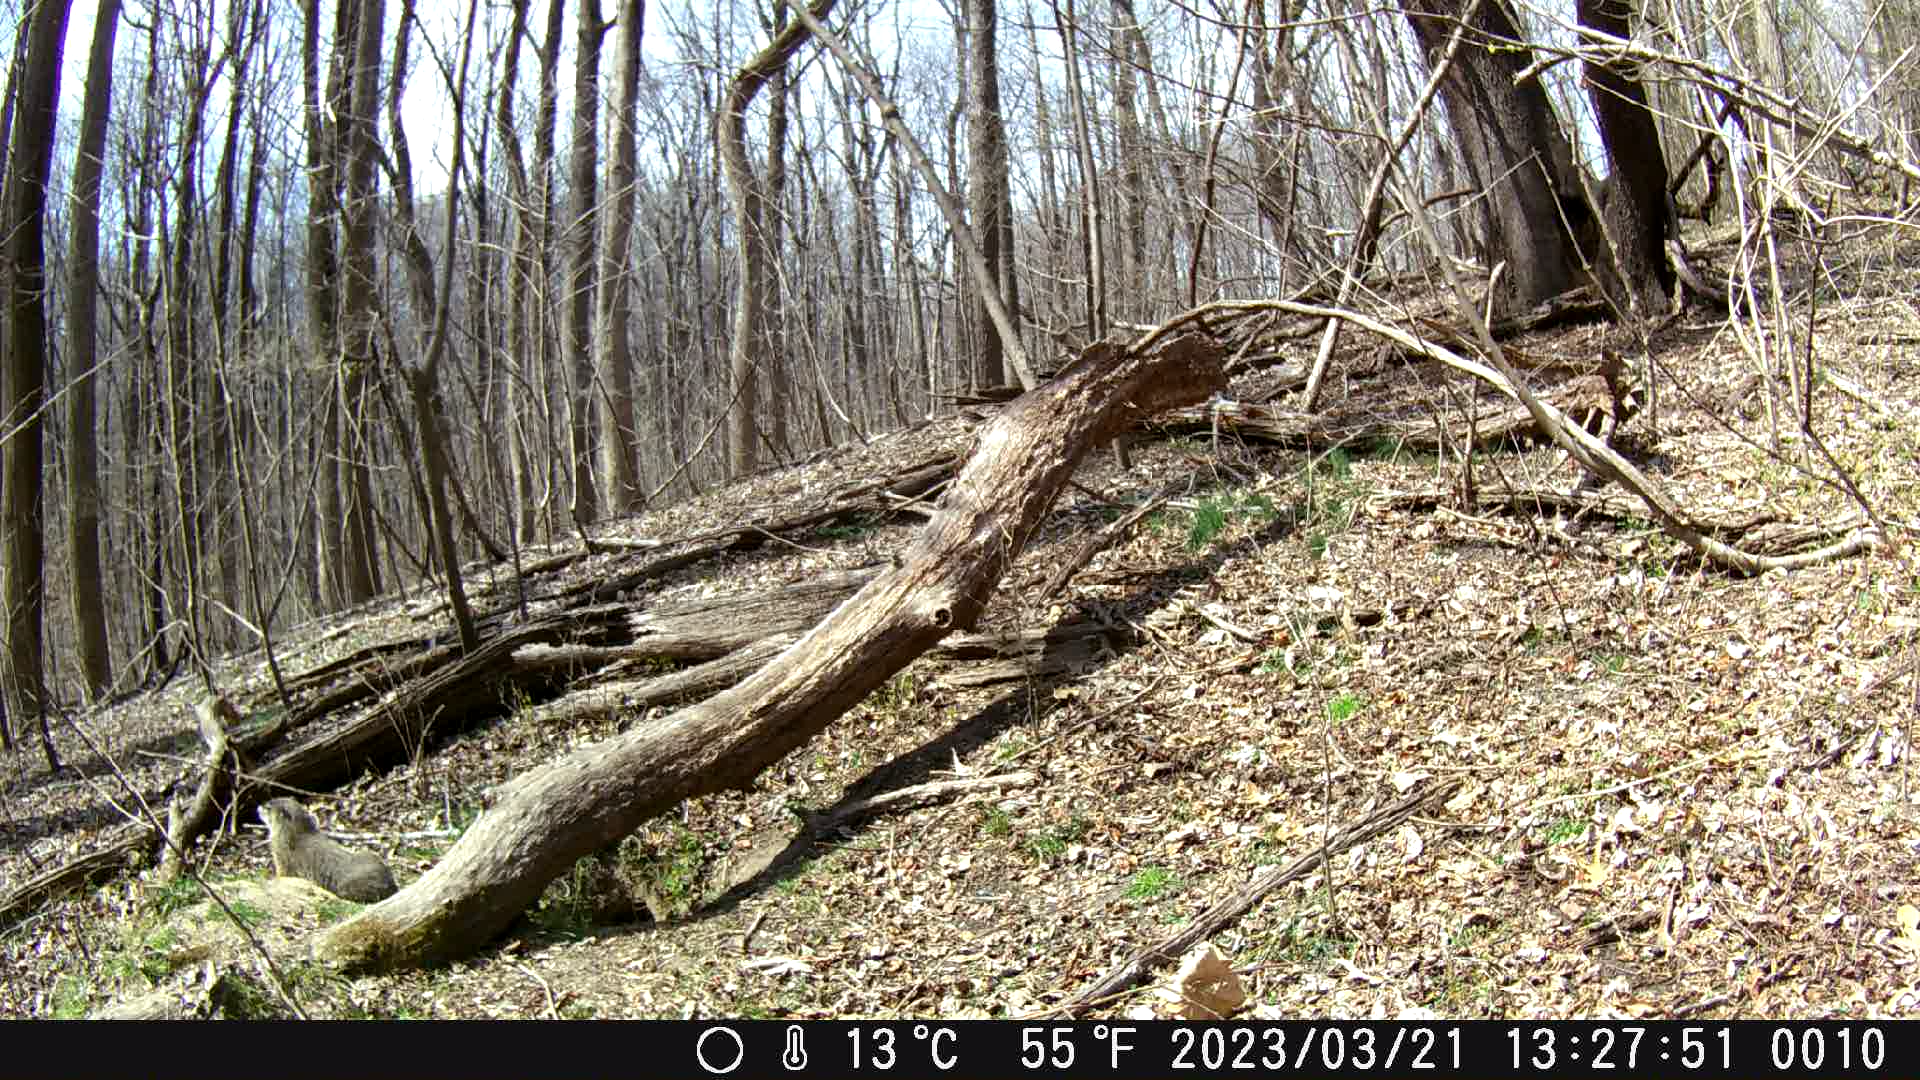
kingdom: Animalia
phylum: Chordata
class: Mammalia
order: Rodentia
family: Sciuridae
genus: Marmota
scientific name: Marmota monax
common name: Groundhog
